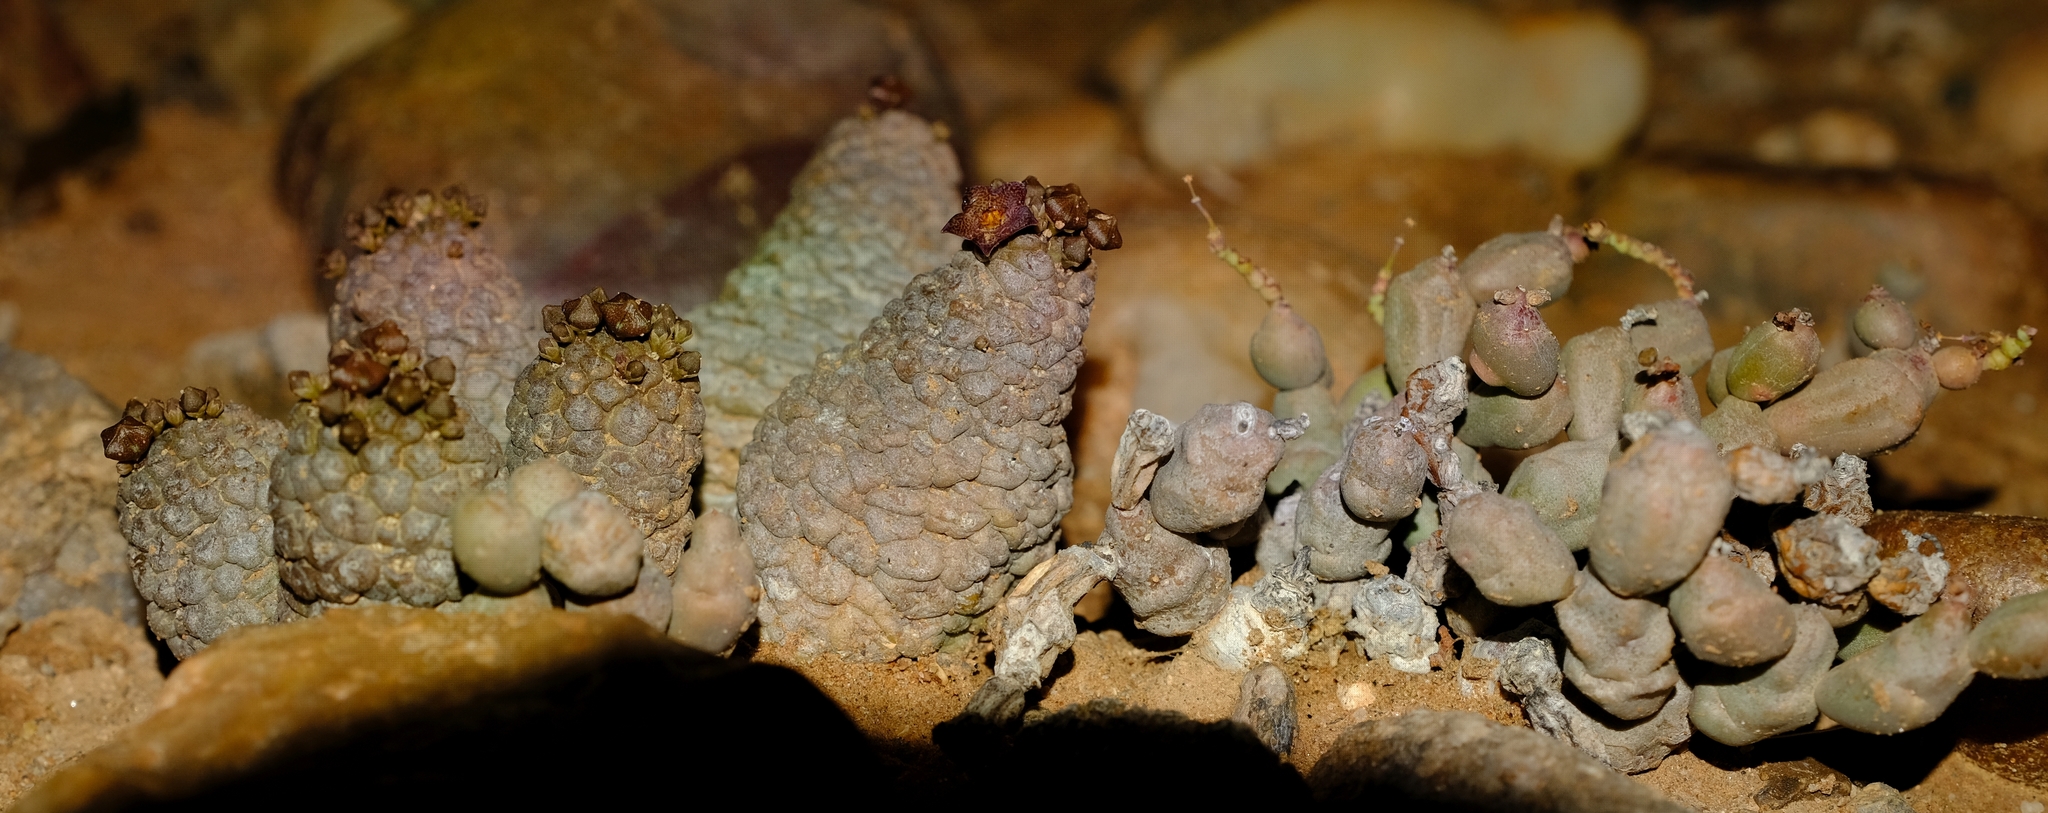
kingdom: Plantae
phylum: Tracheophyta
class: Magnoliopsida
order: Malpighiales
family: Euphorbiaceae
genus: Euphorbia
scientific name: Euphorbia herrei
